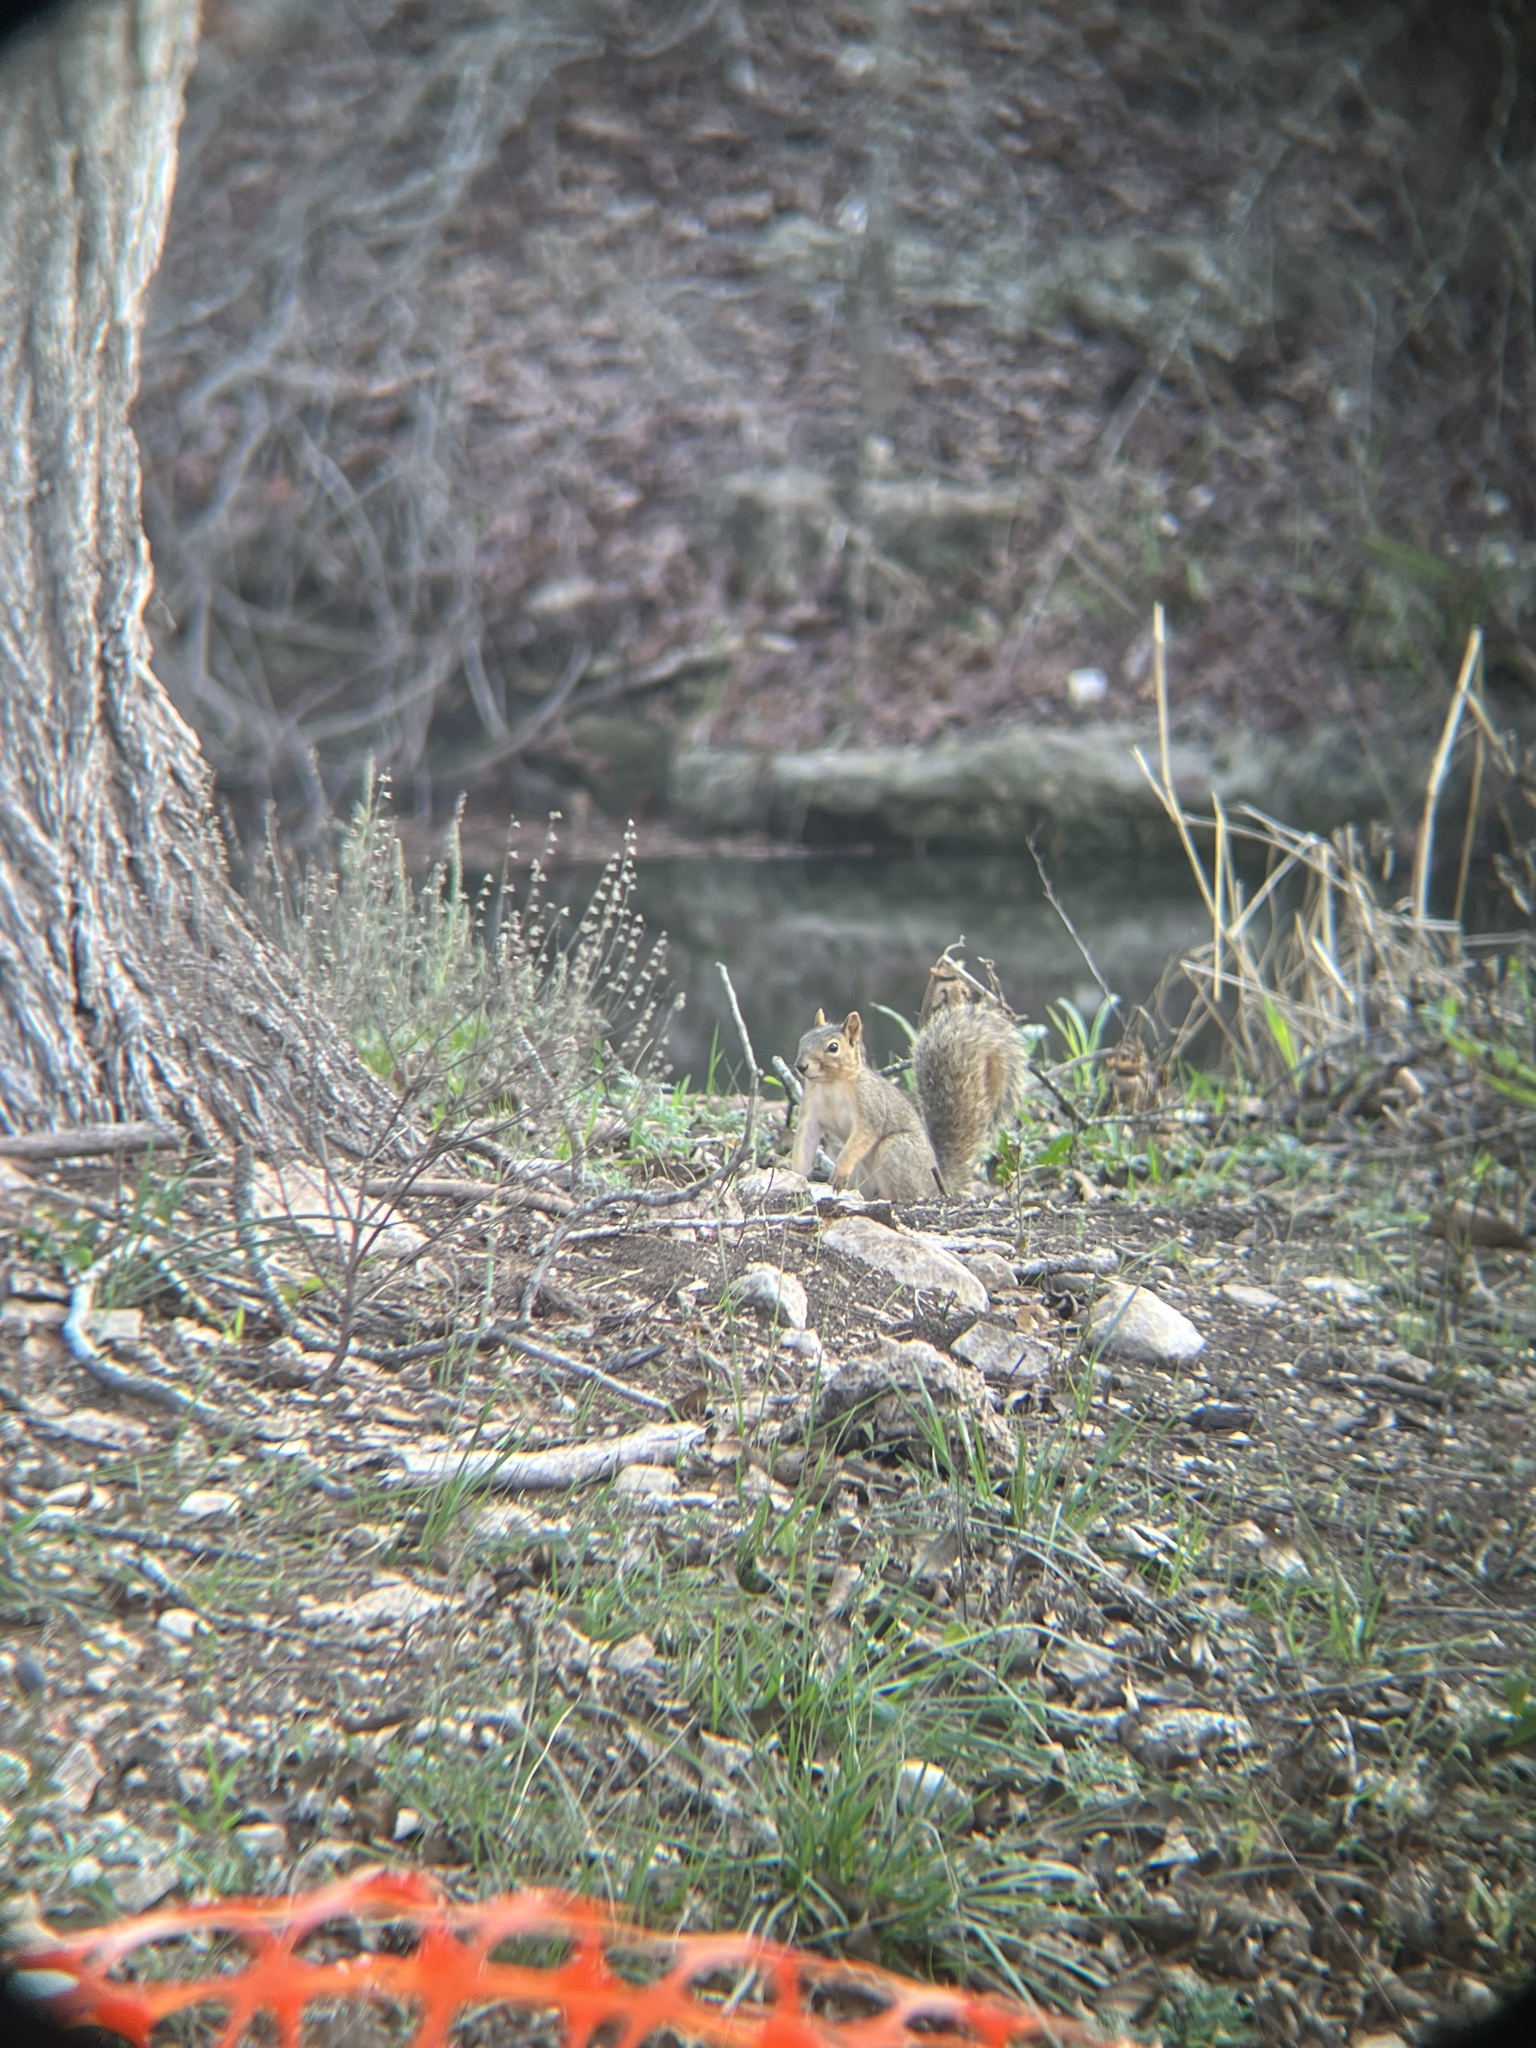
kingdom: Animalia
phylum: Chordata
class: Mammalia
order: Rodentia
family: Sciuridae
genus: Sciurus
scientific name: Sciurus niger
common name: Fox squirrel
